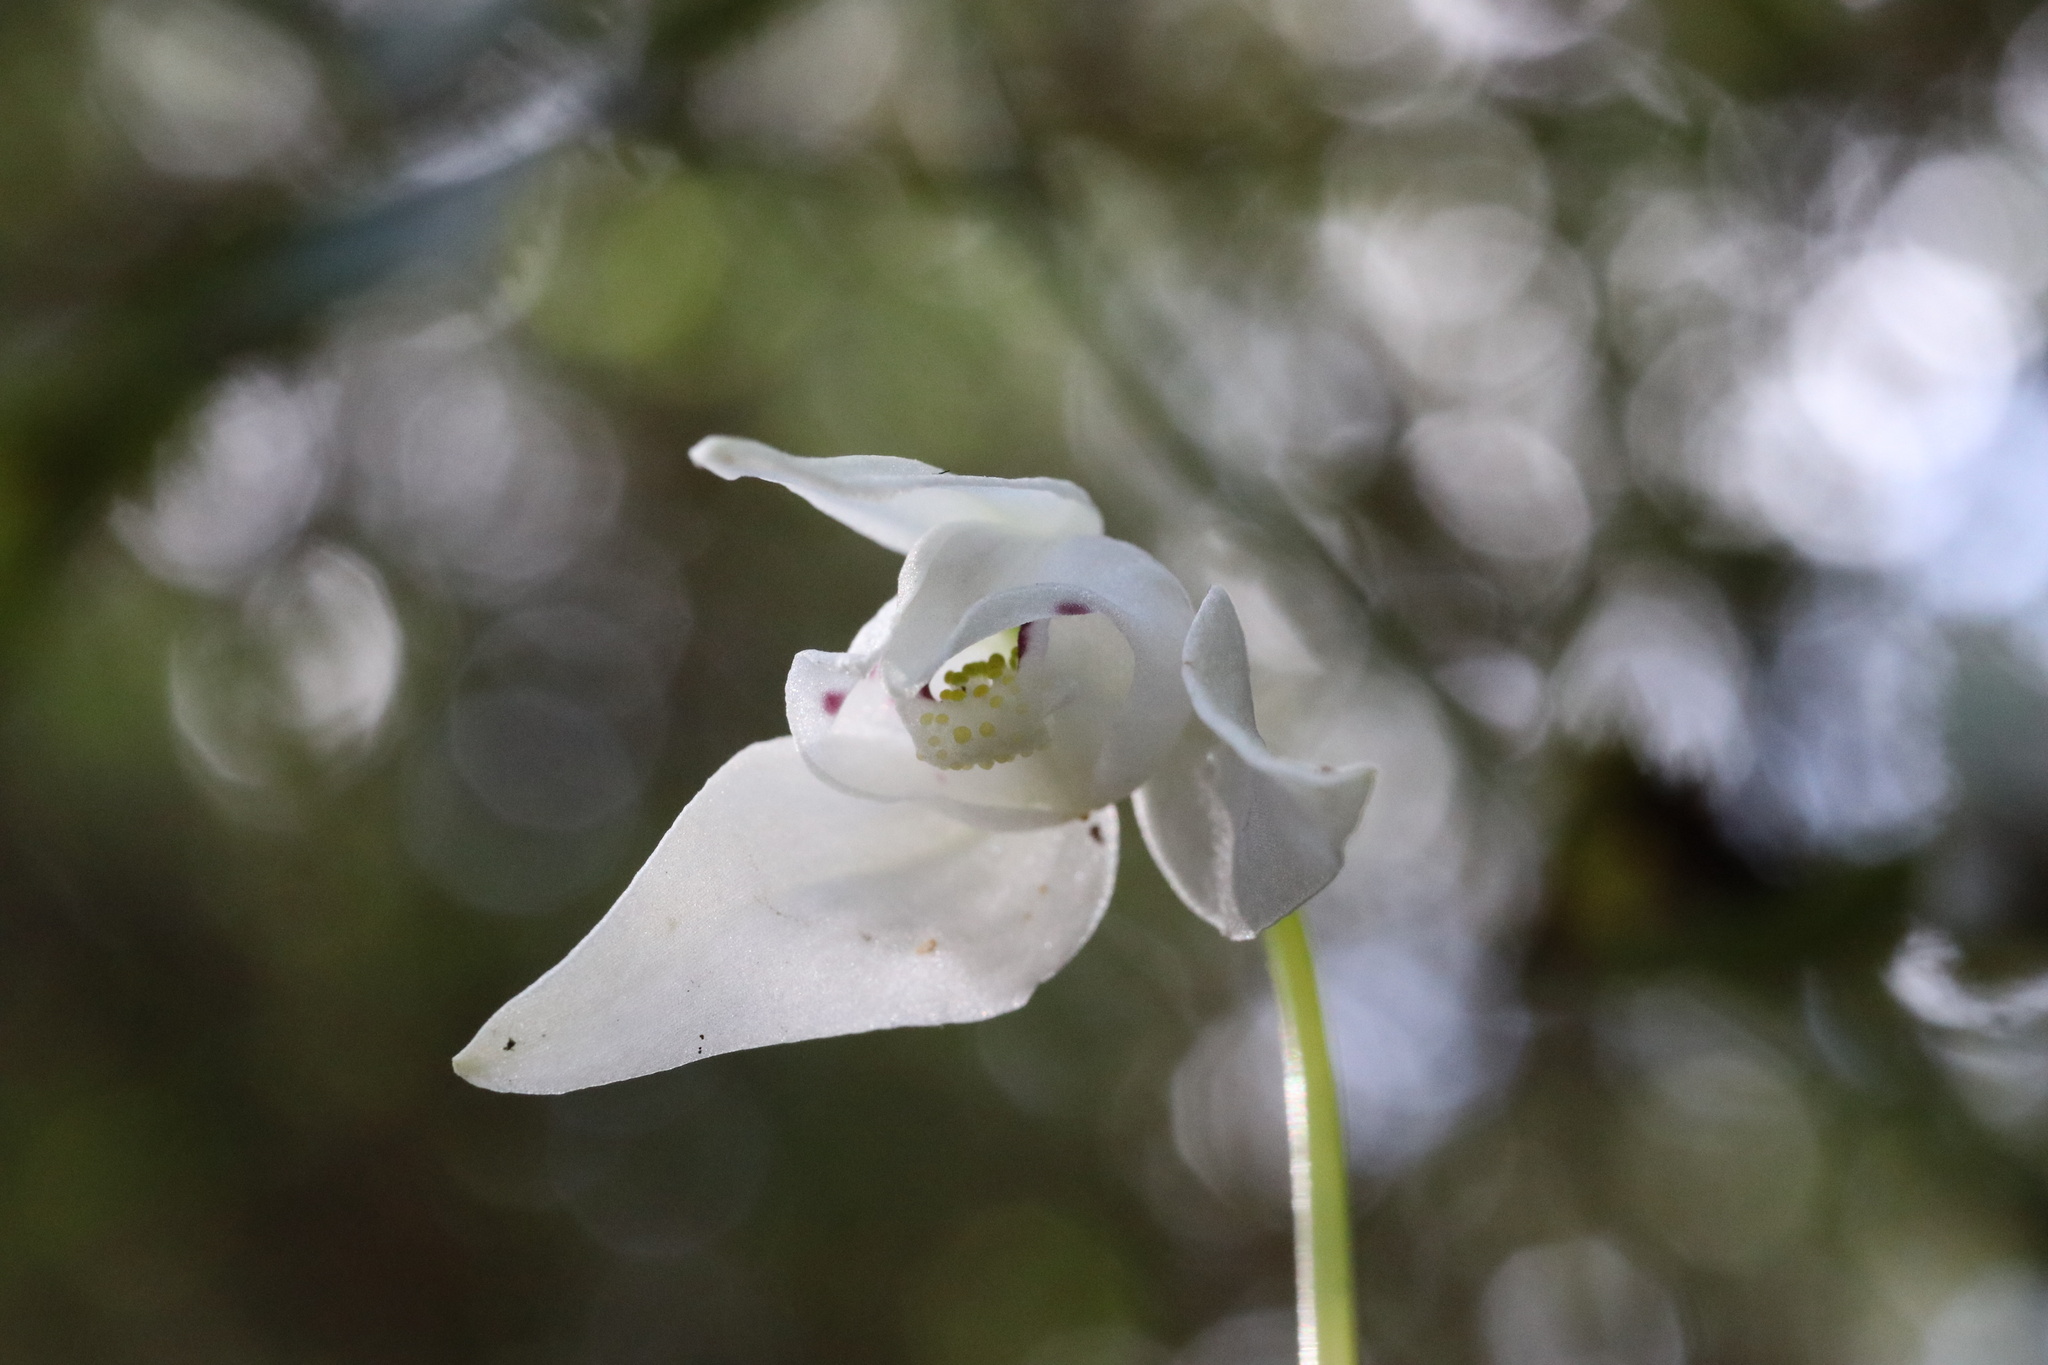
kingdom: Plantae
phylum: Tracheophyta
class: Liliopsida
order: Asparagales
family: Orchidaceae
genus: Codonorchis
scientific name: Codonorchis lessonii
